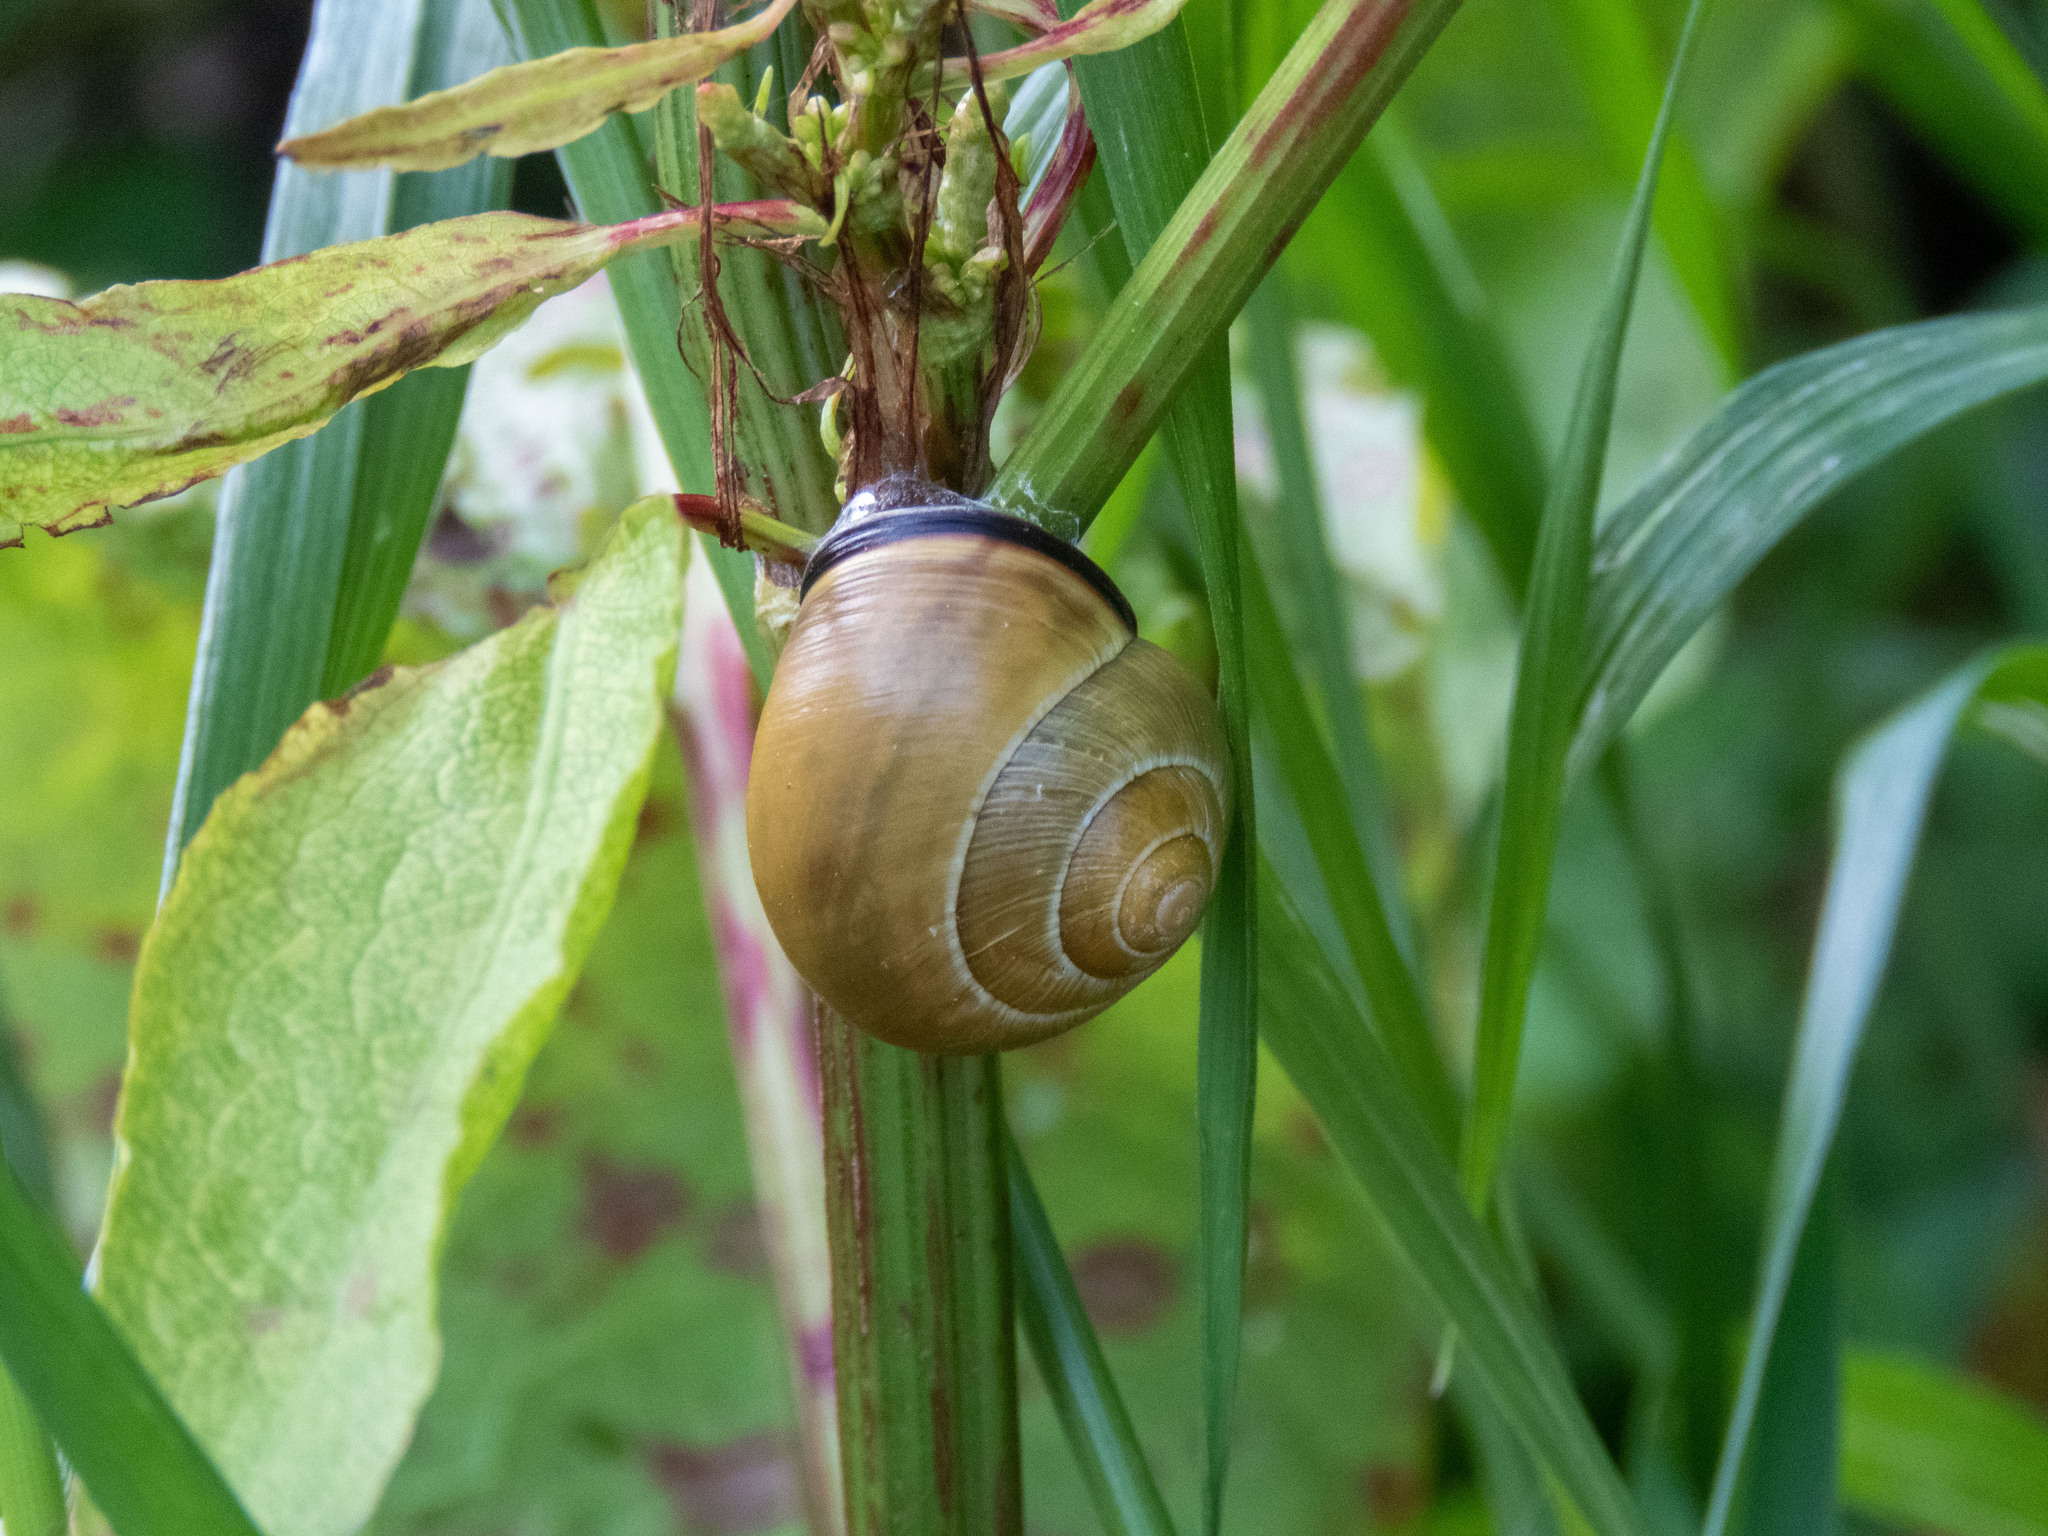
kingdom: Animalia
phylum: Mollusca
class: Gastropoda
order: Stylommatophora
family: Helicidae
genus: Cepaea
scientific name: Cepaea nemoralis
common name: Grovesnail
